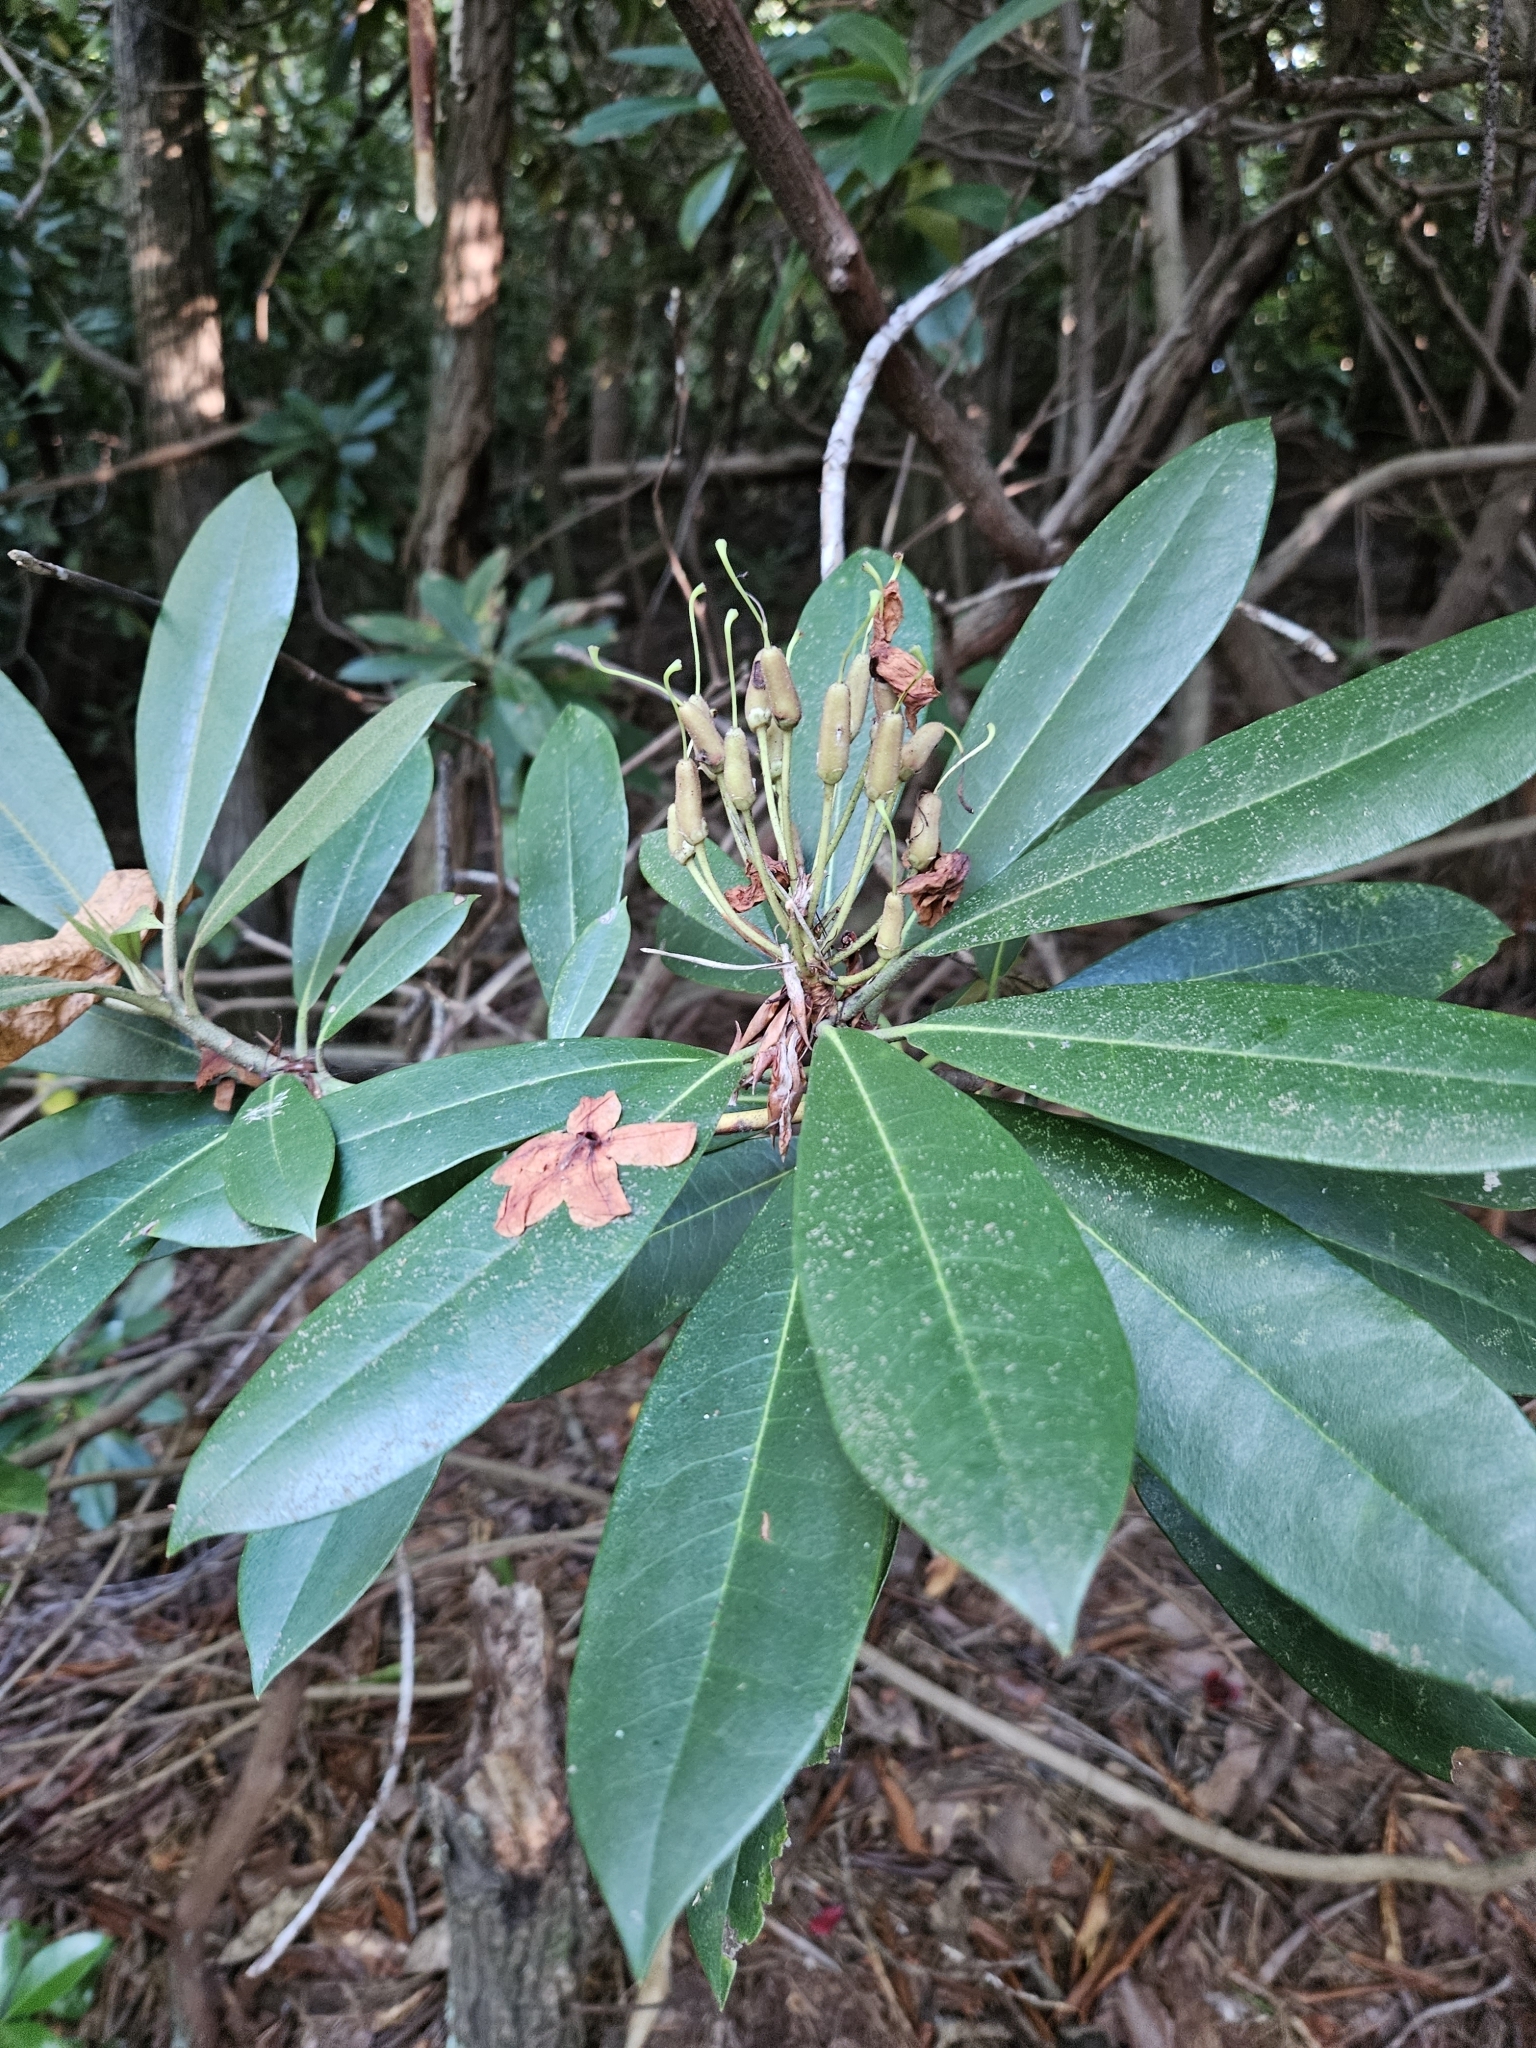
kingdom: Plantae
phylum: Tracheophyta
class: Magnoliopsida
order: Ericales
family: Ericaceae
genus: Rhododendron
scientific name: Rhododendron maximum
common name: Great rhododendron
